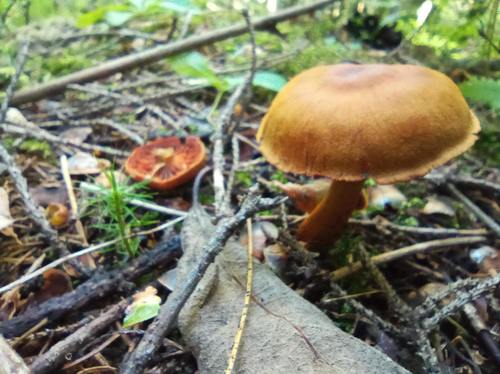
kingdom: Fungi
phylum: Basidiomycota
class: Agaricomycetes
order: Agaricales
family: Cortinariaceae
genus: Cortinarius
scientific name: Cortinarius semisanguineus
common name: Surprise webcap
